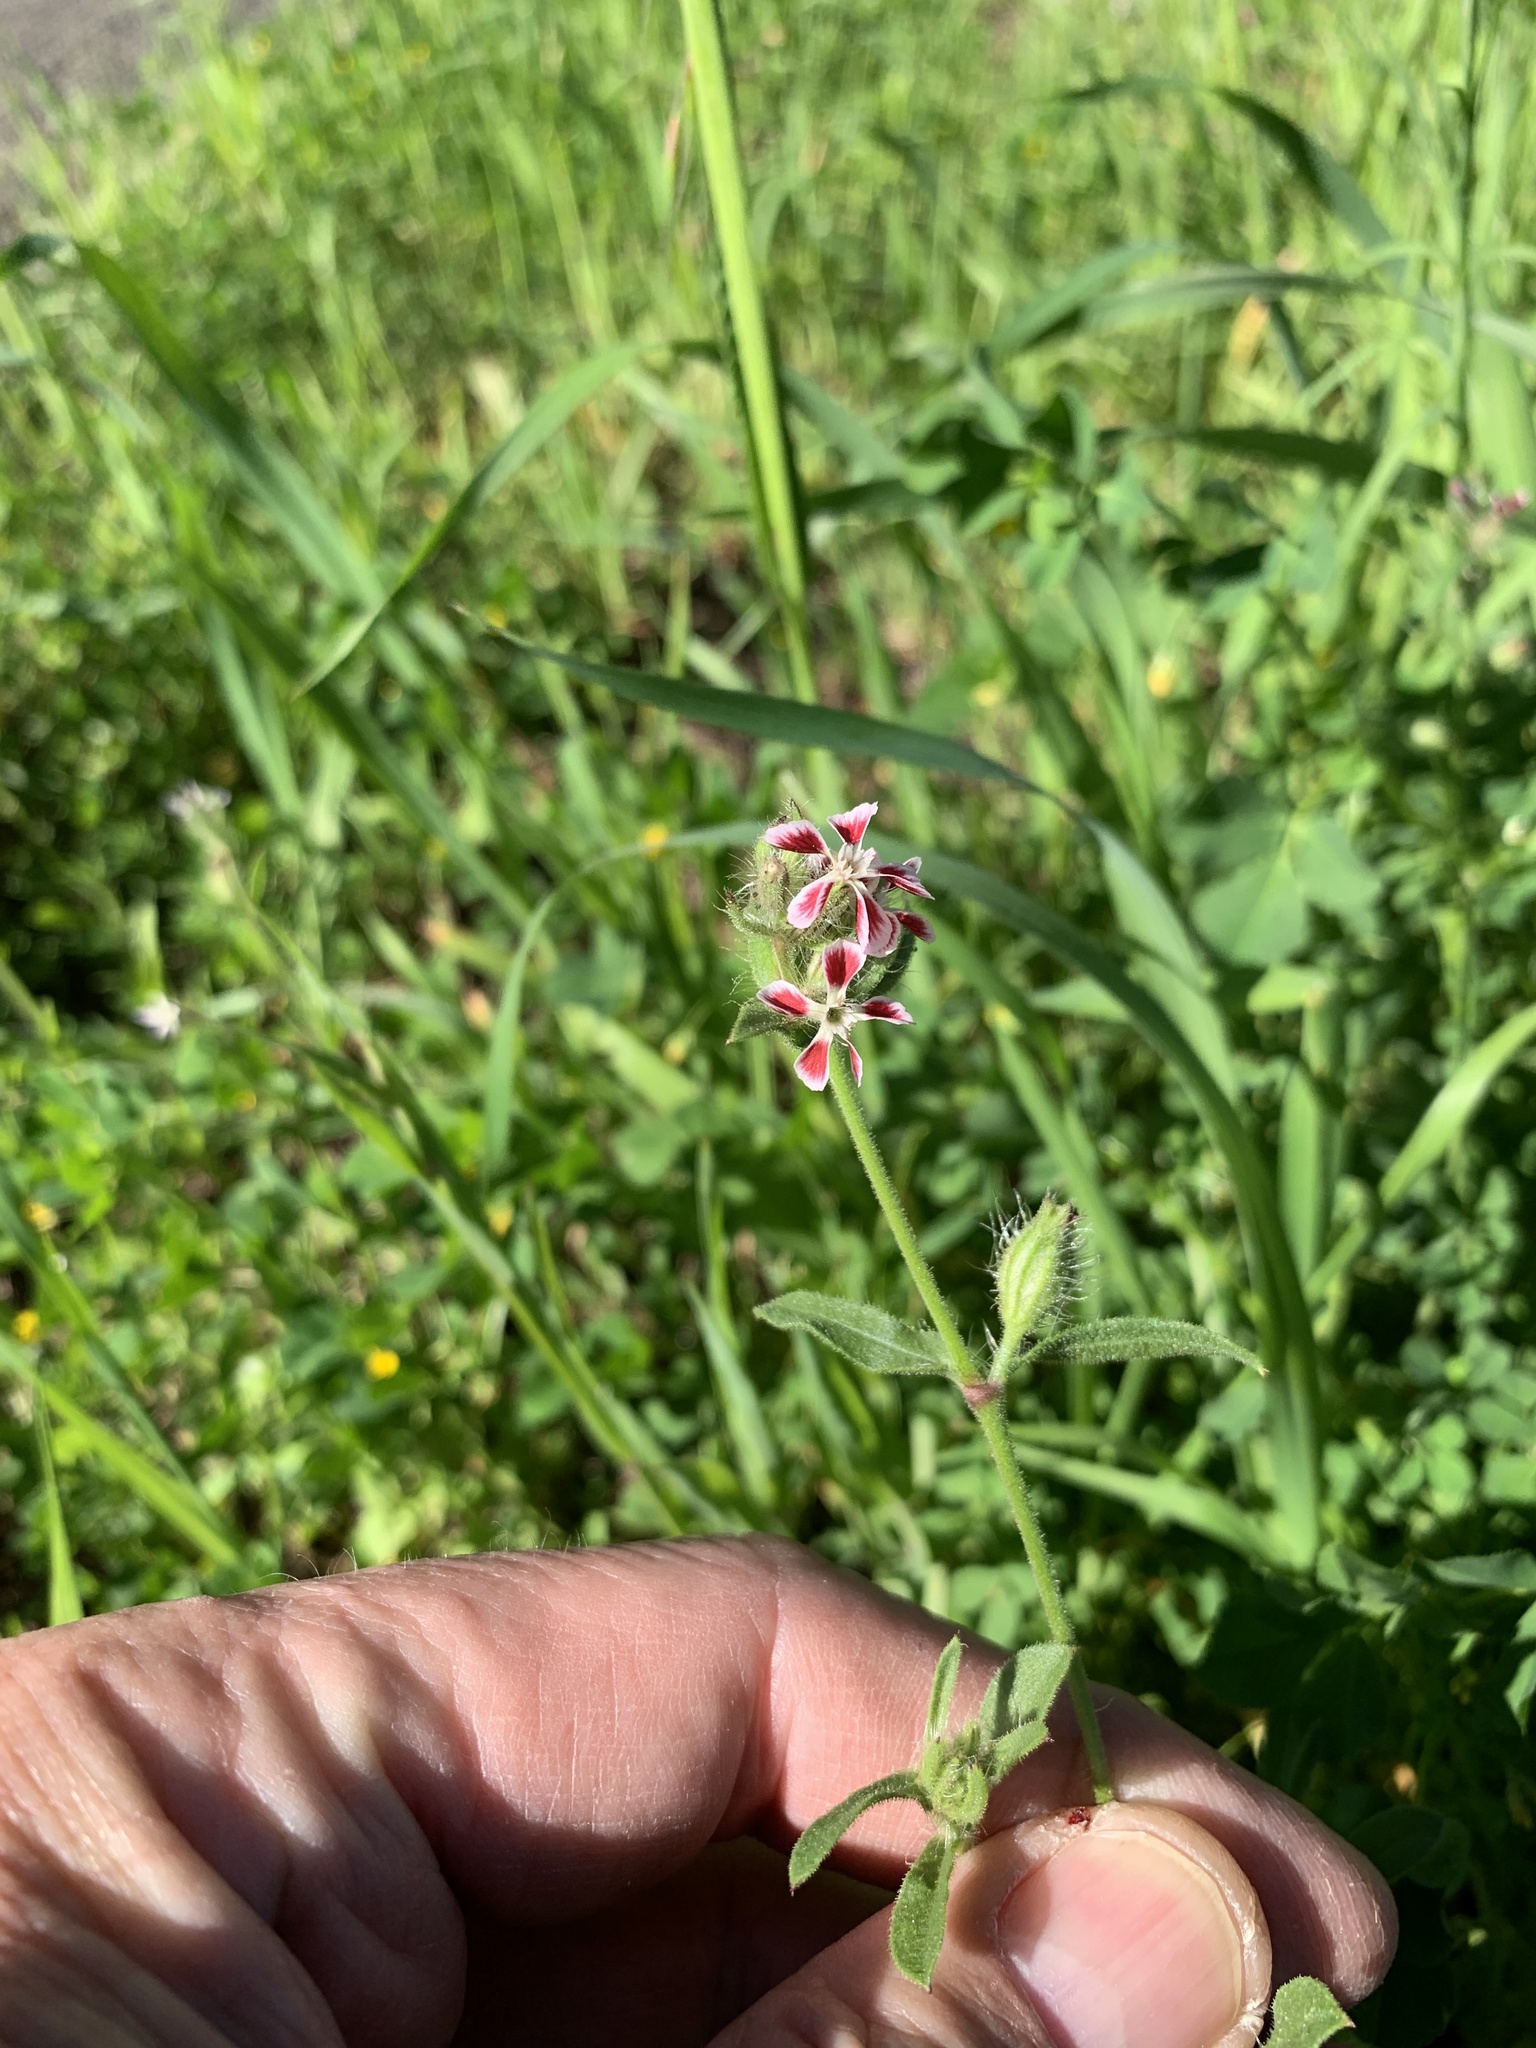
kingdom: Plantae
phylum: Tracheophyta
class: Magnoliopsida
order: Caryophyllales
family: Caryophyllaceae
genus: Silene
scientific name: Silene gallica
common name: Small-flowered catchfly
